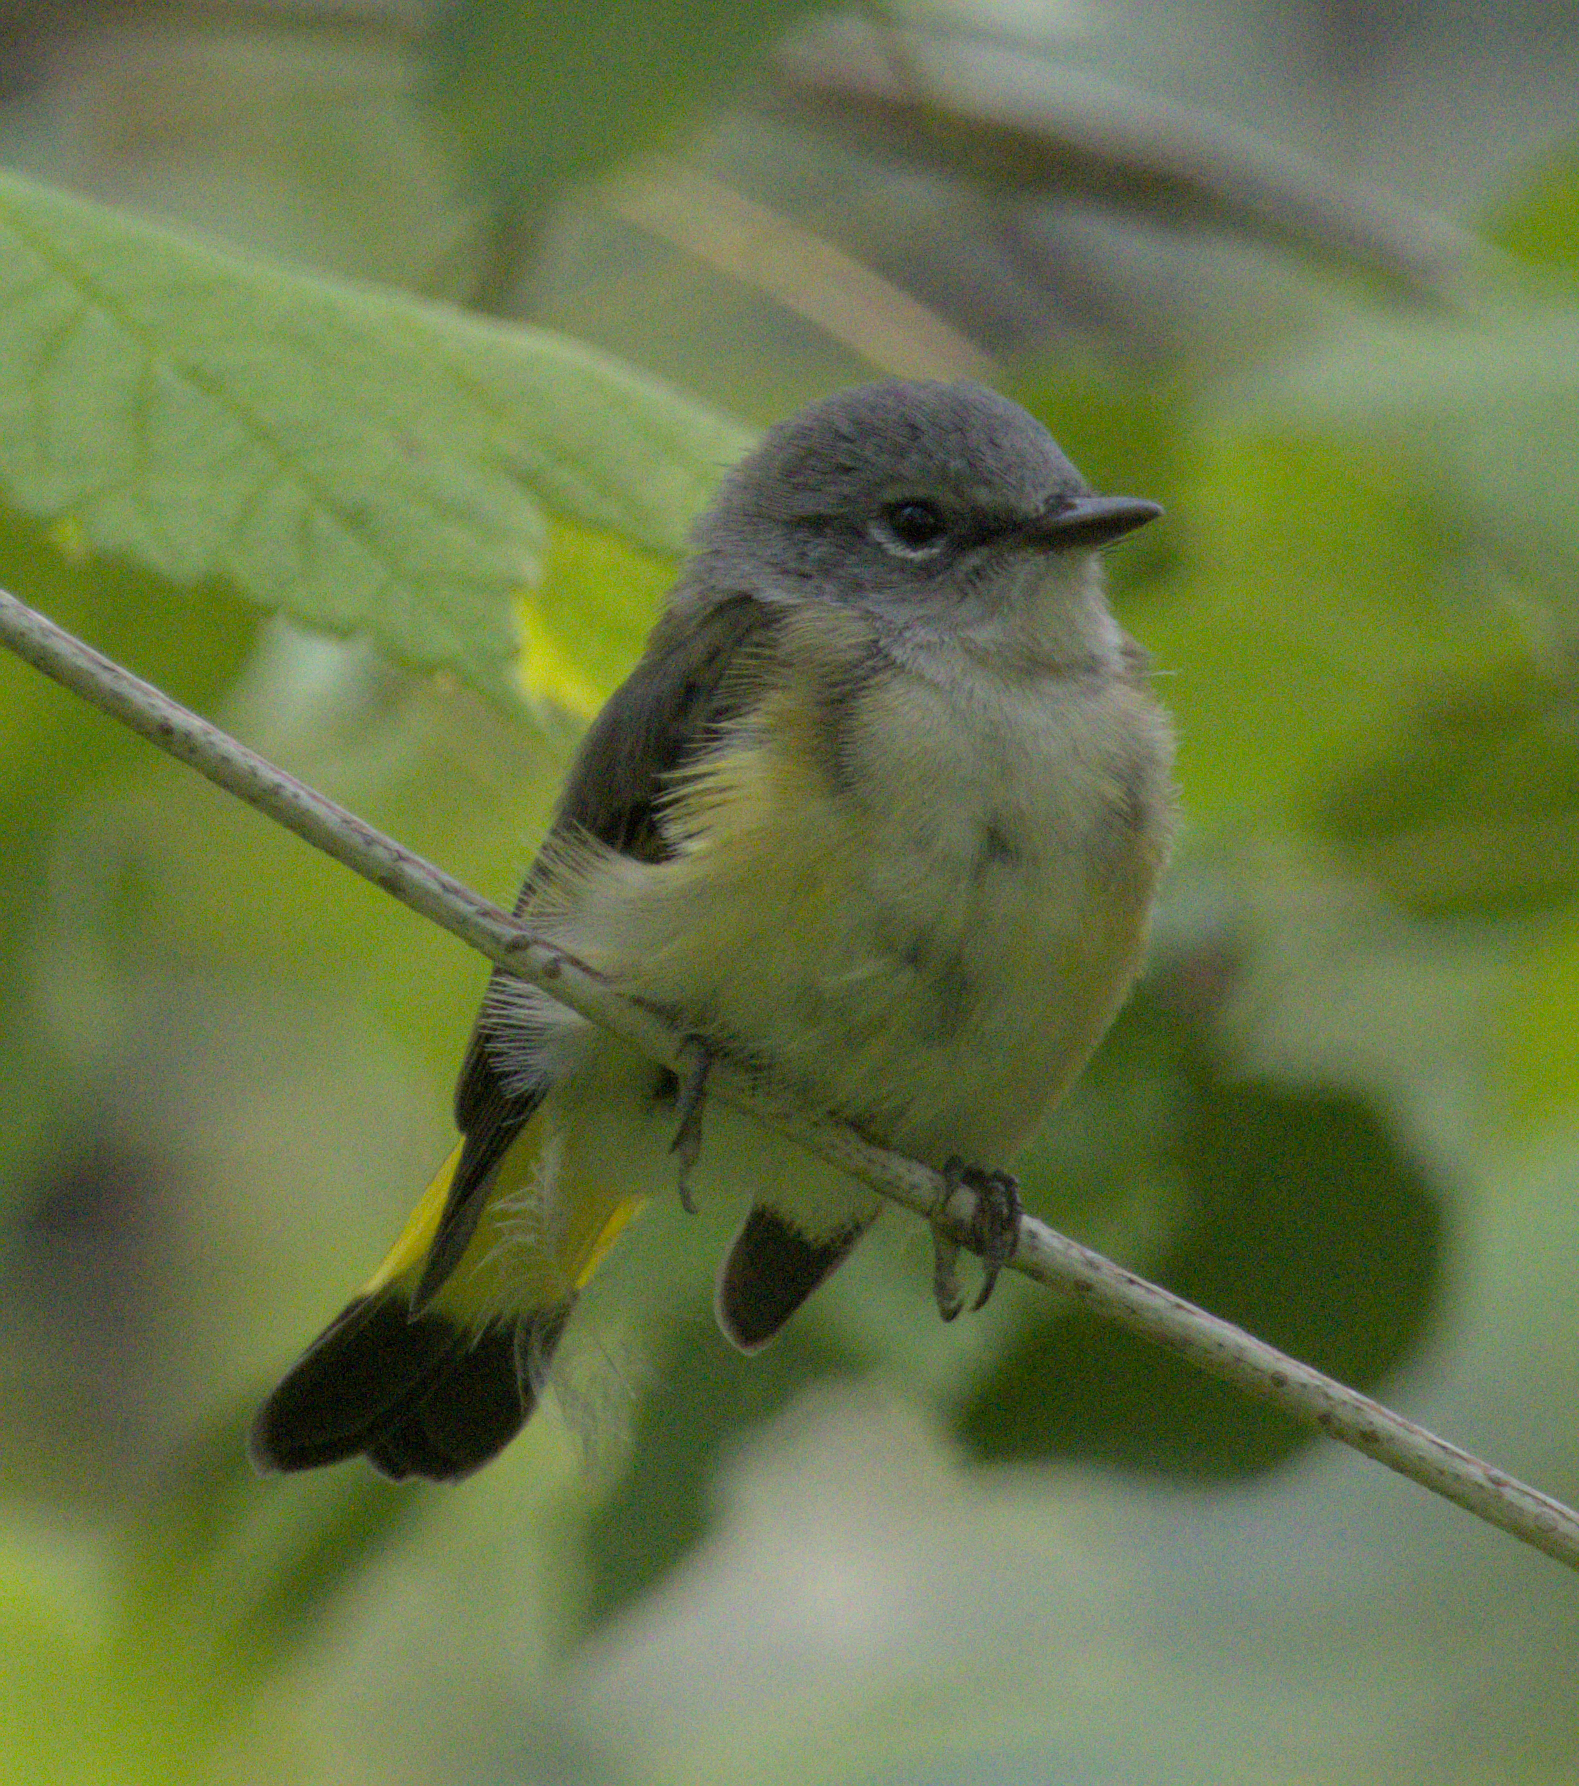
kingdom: Animalia
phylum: Chordata
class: Aves
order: Passeriformes
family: Parulidae
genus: Setophaga
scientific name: Setophaga ruticilla
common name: American redstart
